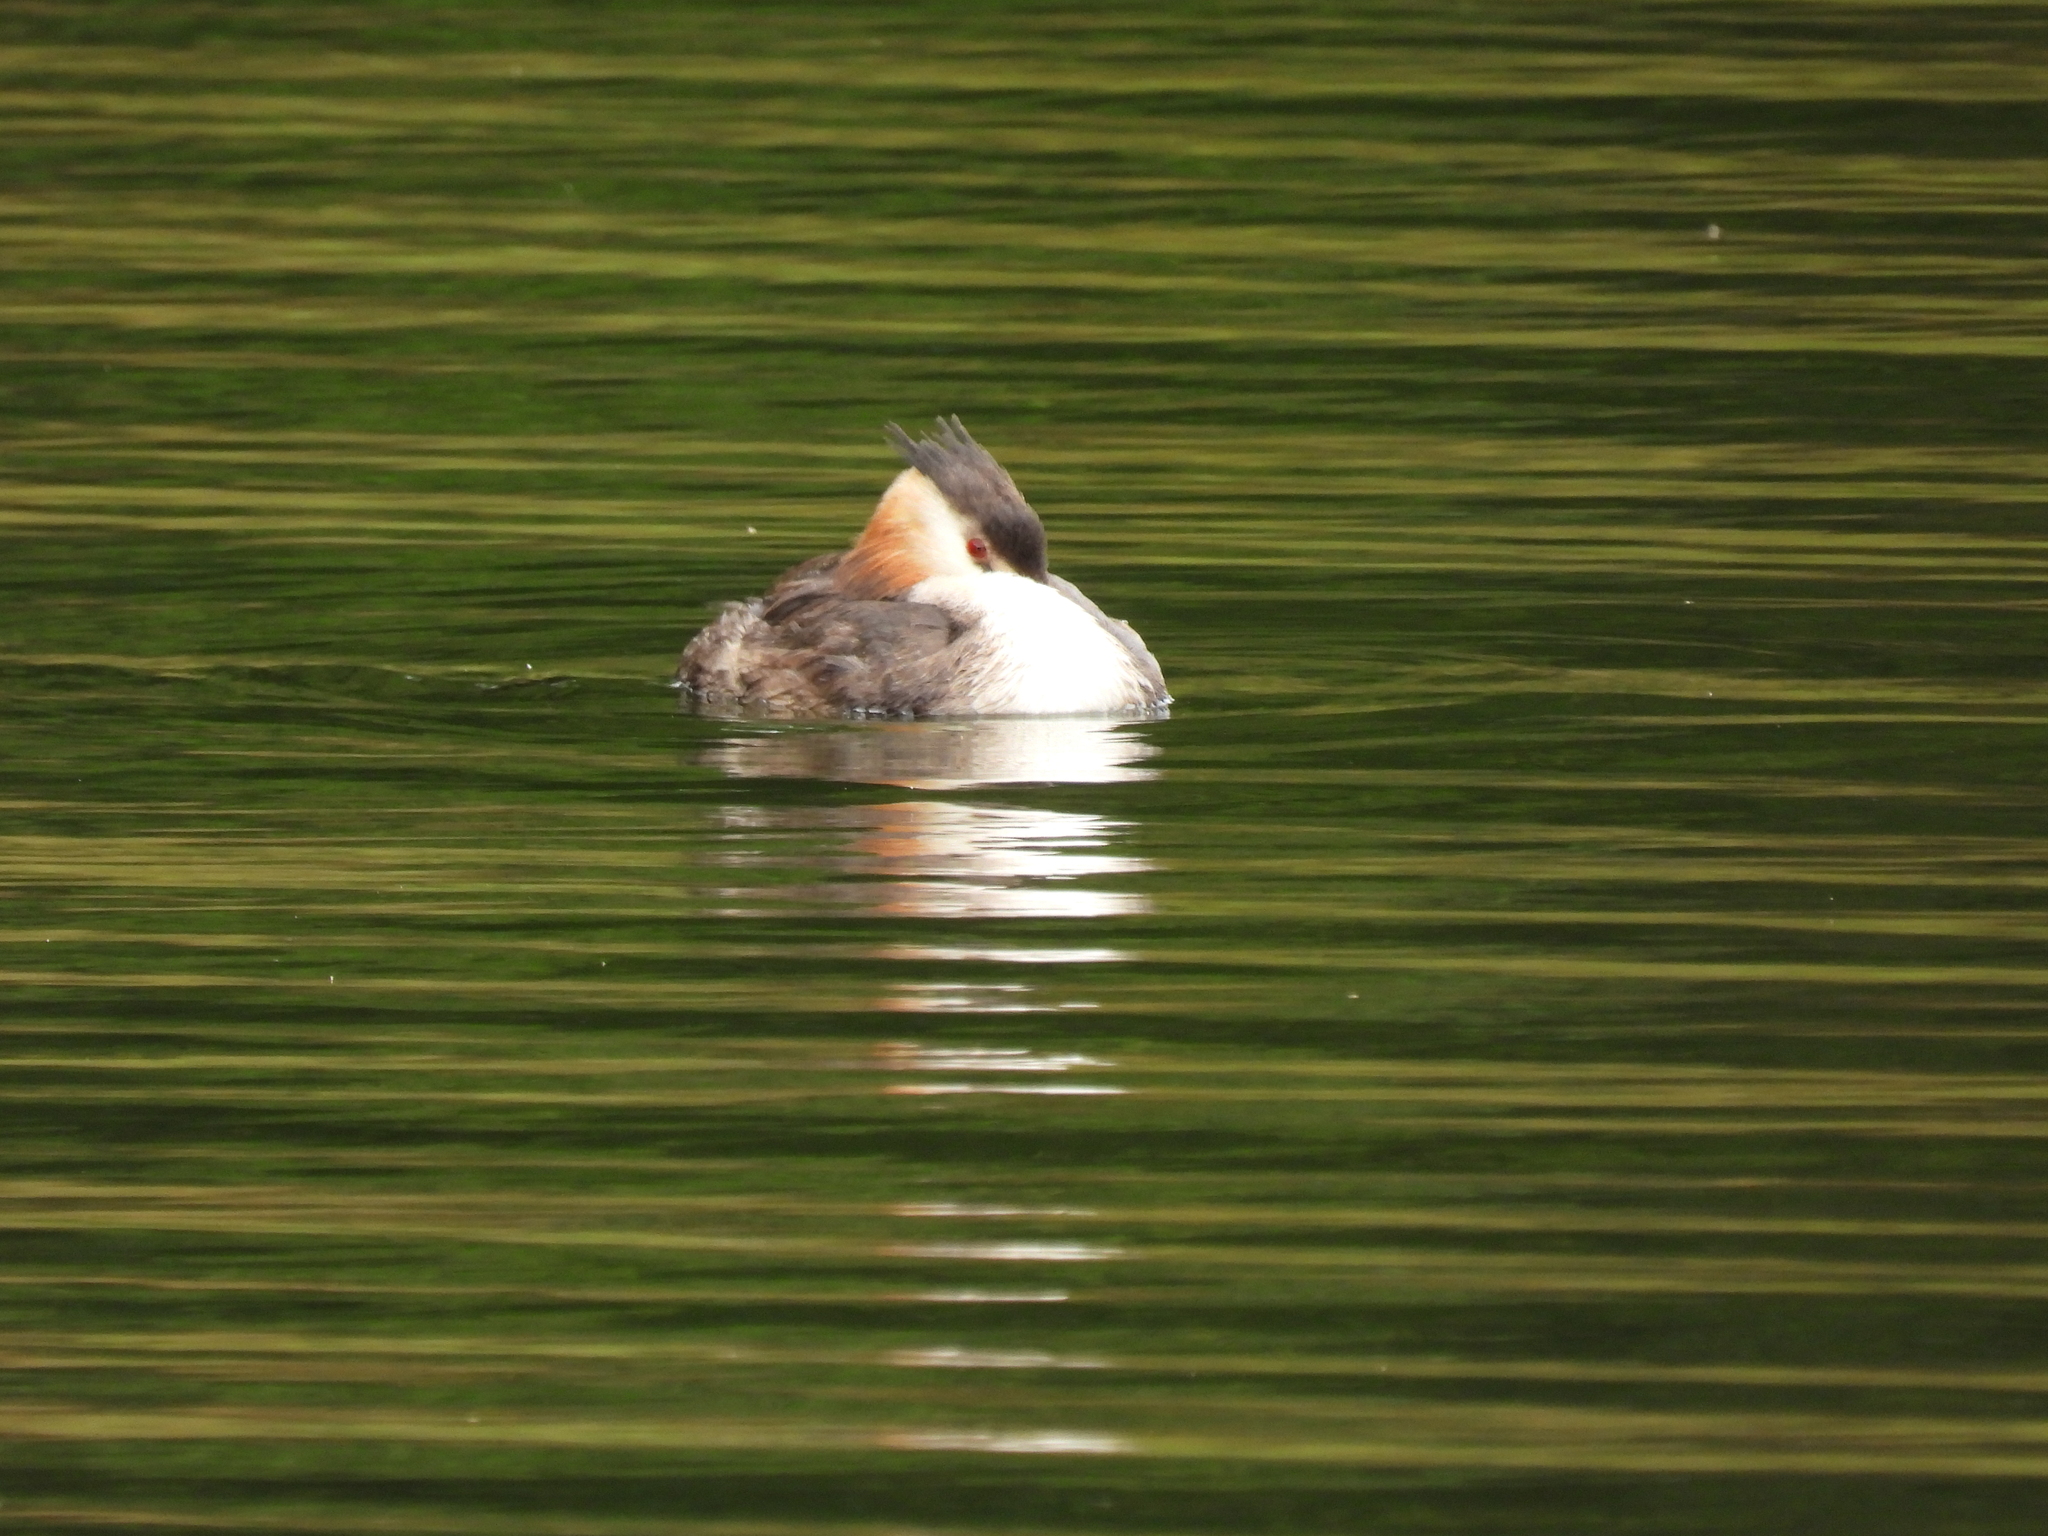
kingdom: Animalia
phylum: Chordata
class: Aves
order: Podicipediformes
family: Podicipedidae
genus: Podiceps
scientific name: Podiceps cristatus
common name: Great crested grebe
